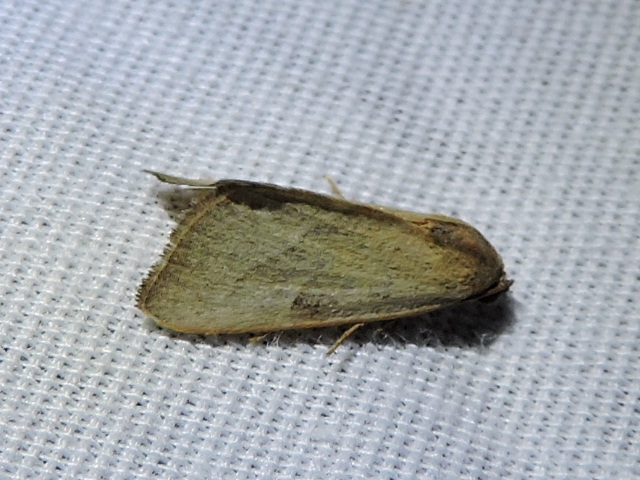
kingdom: Animalia
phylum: Arthropoda
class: Insecta
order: Lepidoptera
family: Noctuidae
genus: Galgula
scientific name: Galgula partita
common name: Wedgeling
